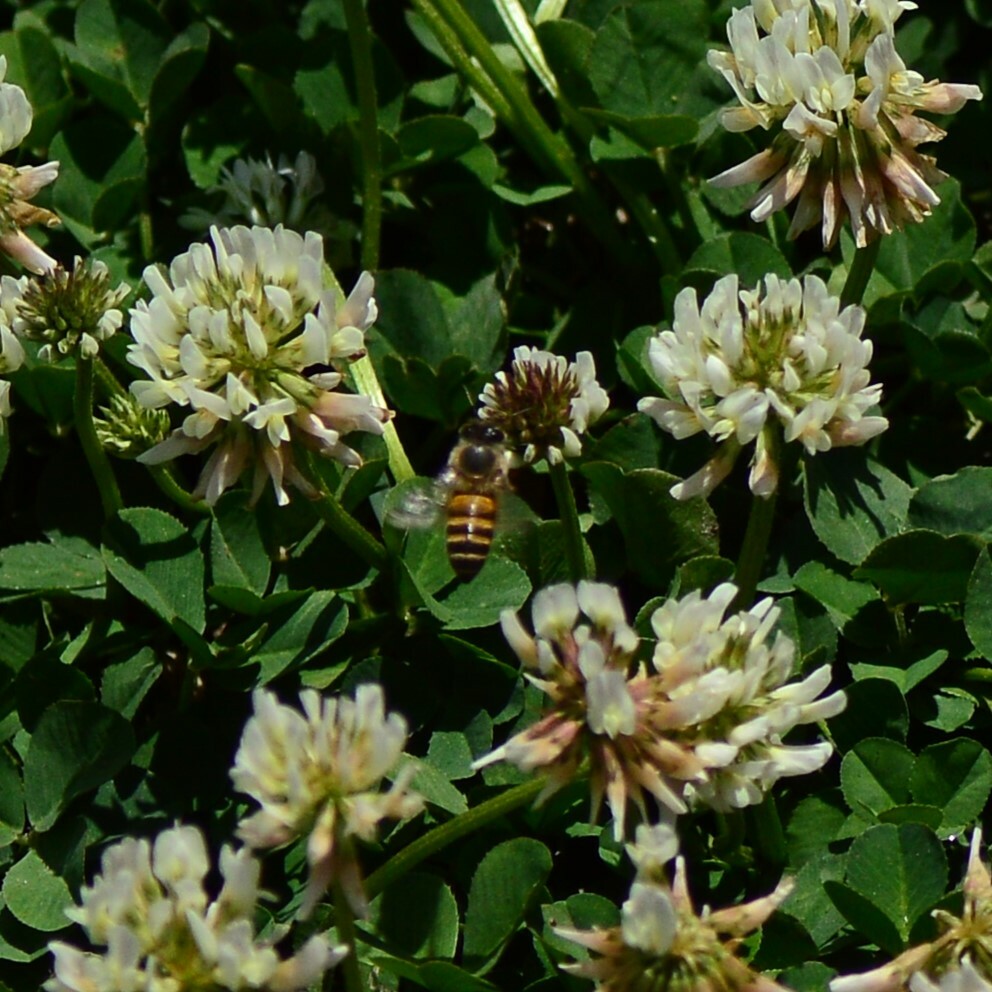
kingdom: Animalia
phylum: Arthropoda
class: Insecta
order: Hymenoptera
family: Apidae
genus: Apis
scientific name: Apis cerana
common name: Honey bee
